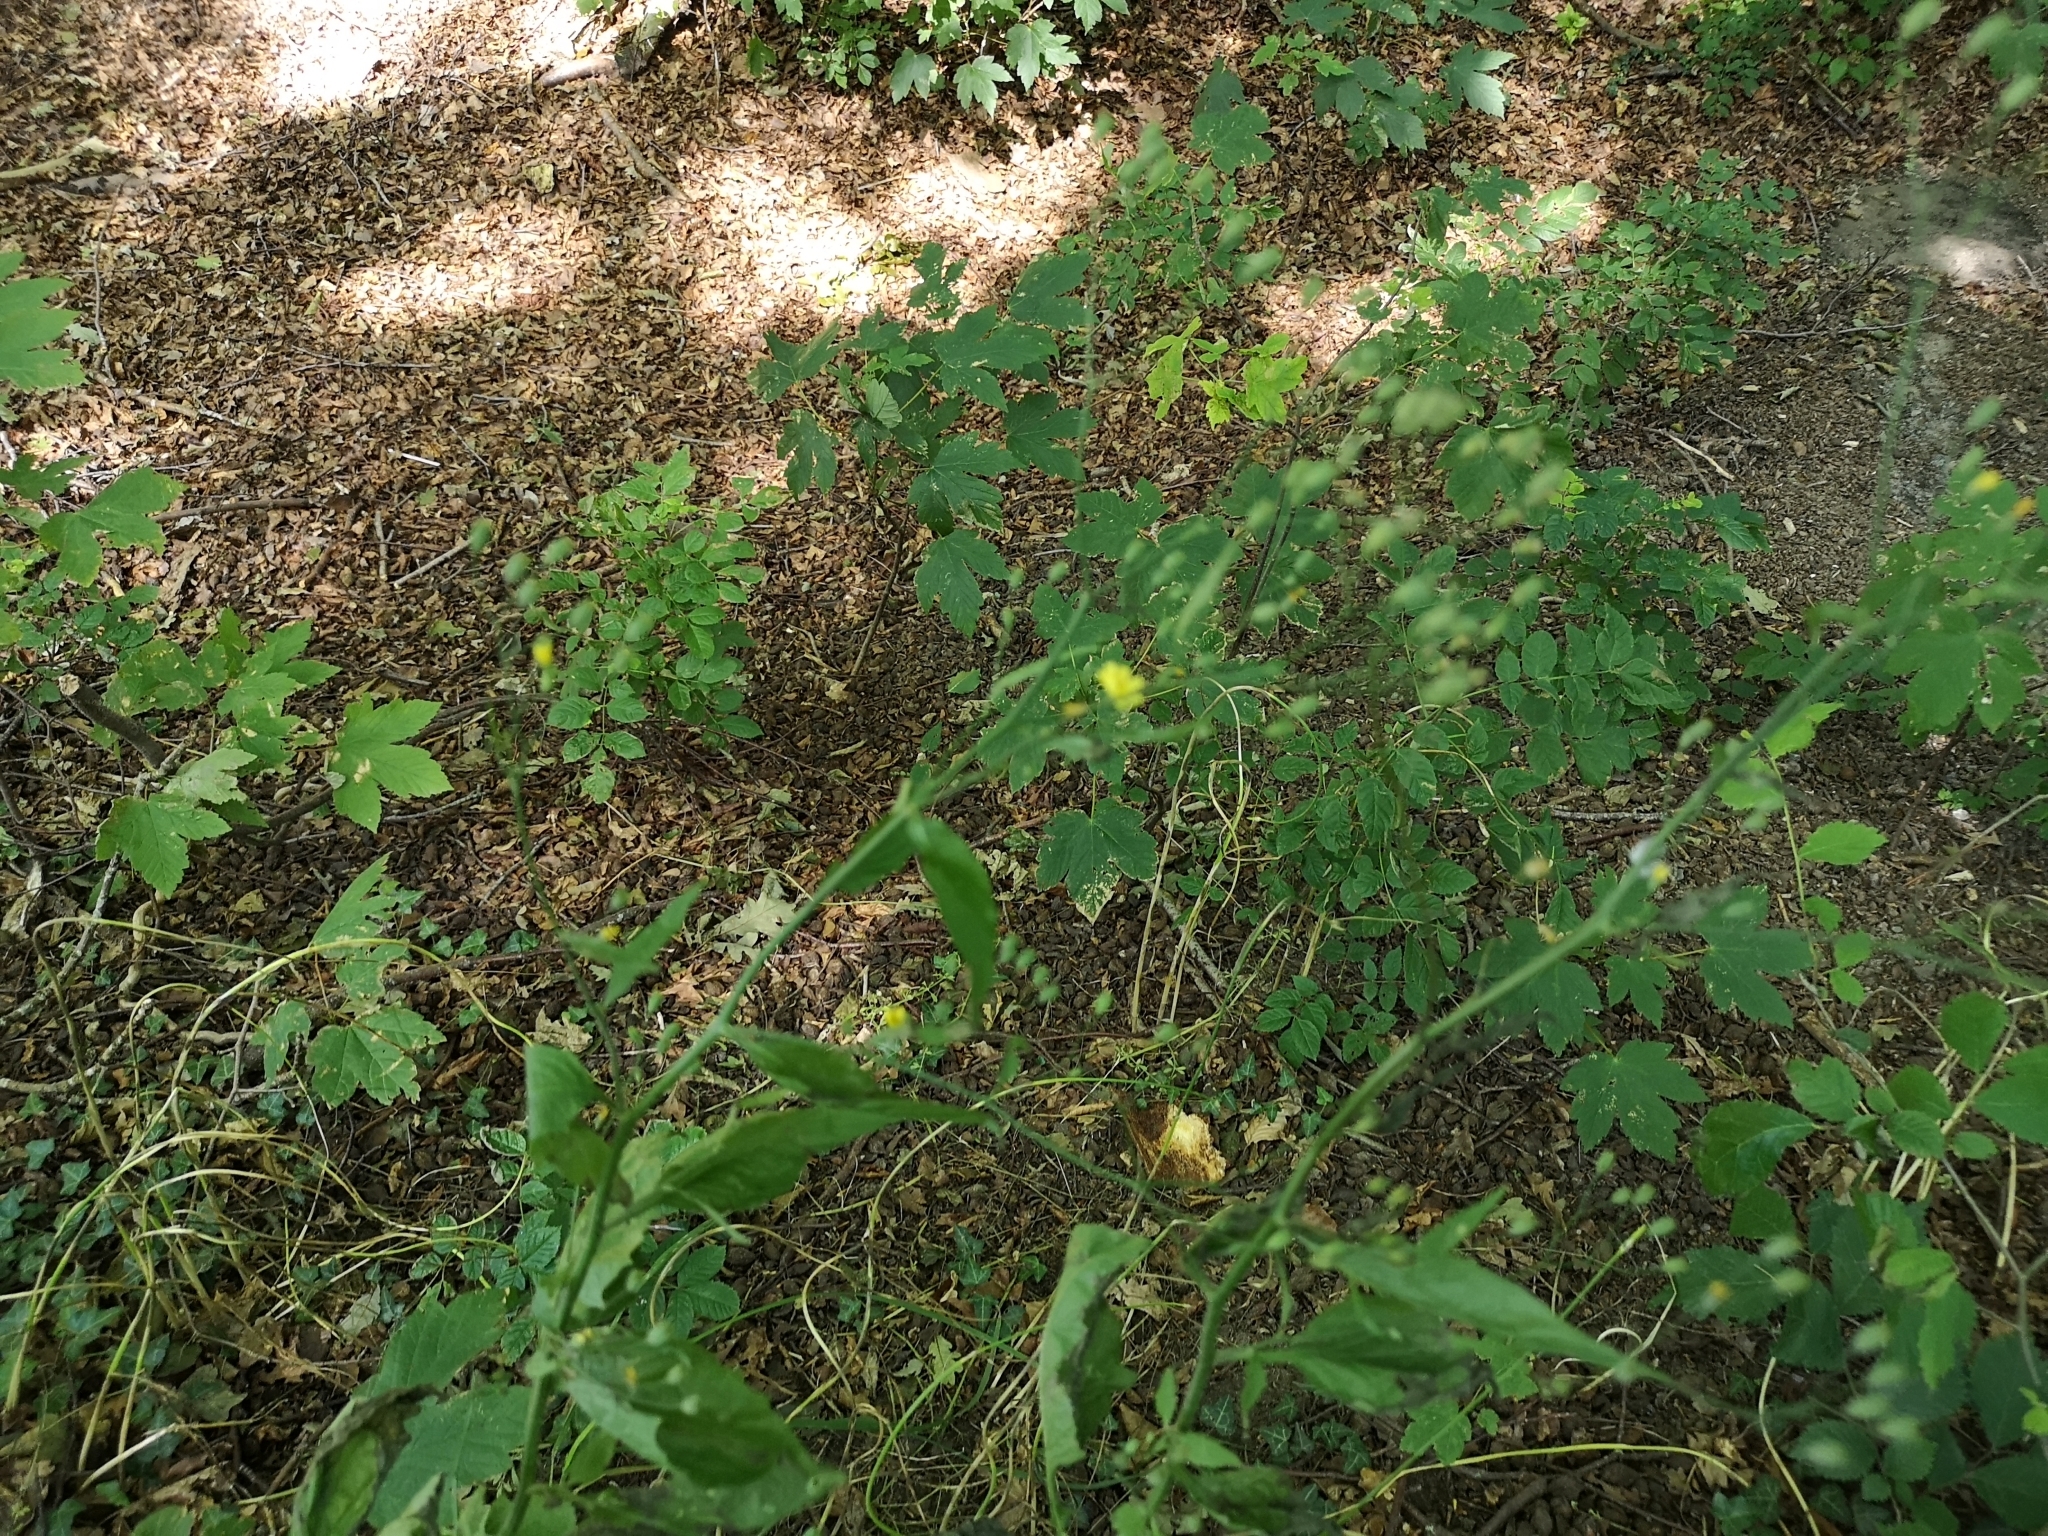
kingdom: Plantae
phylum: Tracheophyta
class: Magnoliopsida
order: Asterales
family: Asteraceae
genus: Lapsana
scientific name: Lapsana communis
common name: Nipplewort
